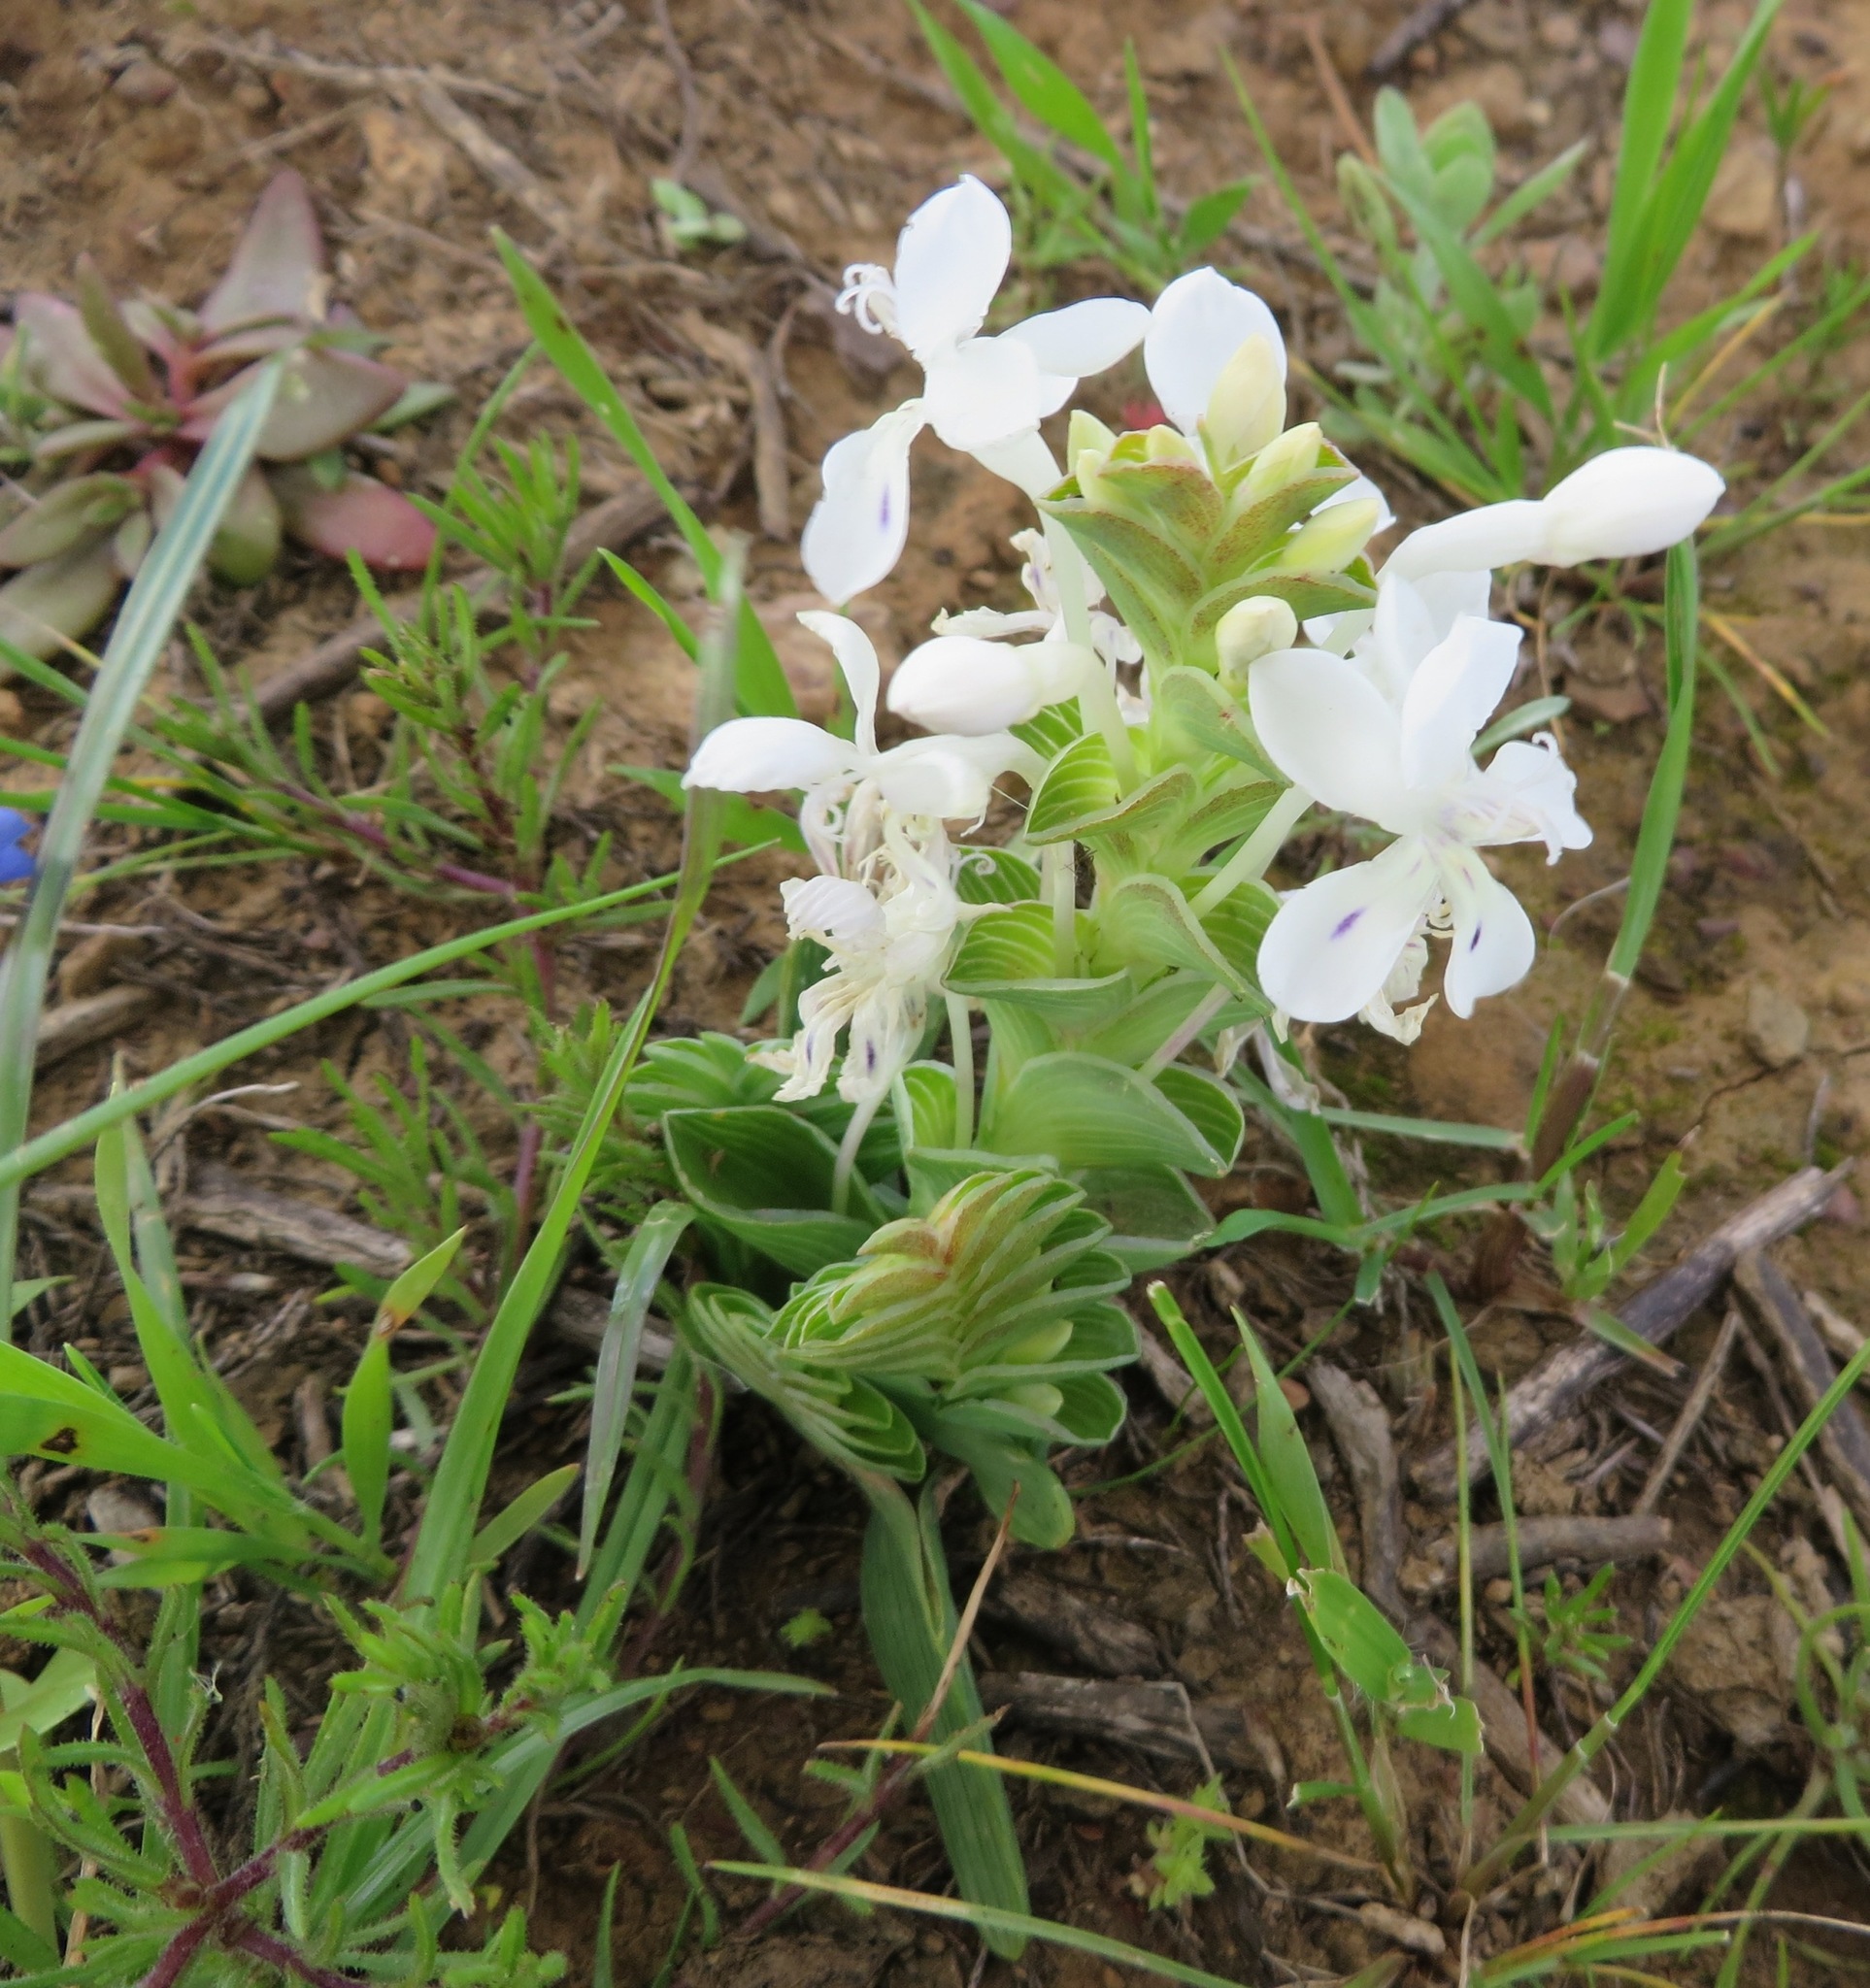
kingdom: Plantae
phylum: Tracheophyta
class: Liliopsida
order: Asparagales
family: Iridaceae
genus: Lapeirousia
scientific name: Lapeirousia pyramidalis
